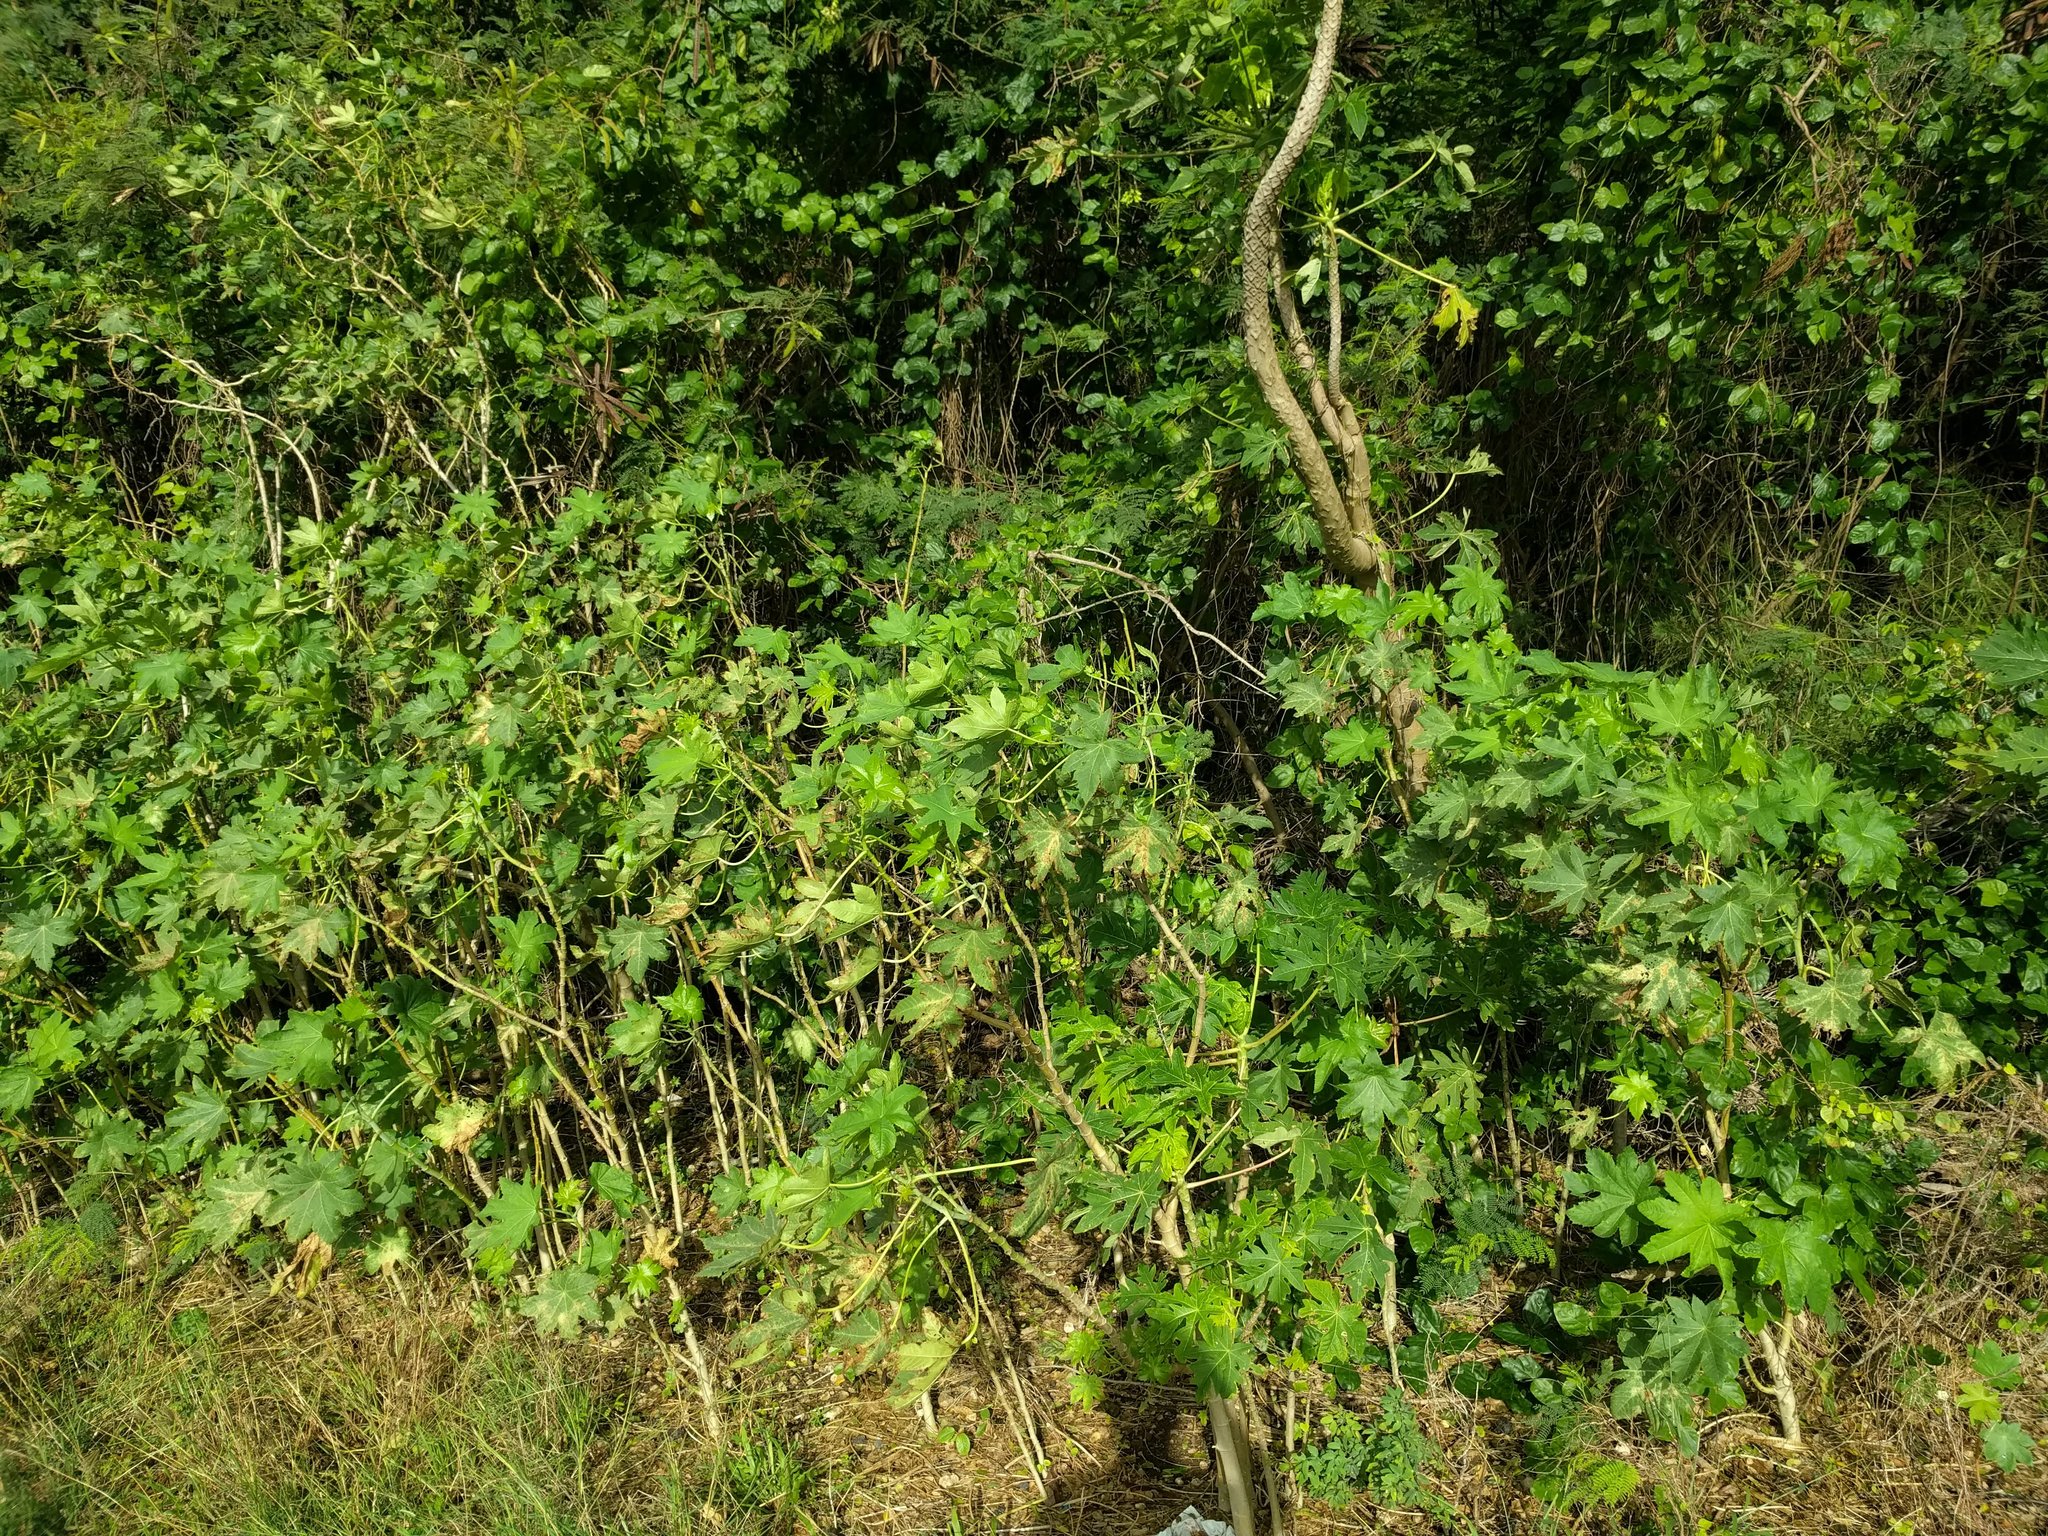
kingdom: Plantae
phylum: Tracheophyta
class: Magnoliopsida
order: Malpighiales
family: Euphorbiaceae
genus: Ricinus
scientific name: Ricinus communis
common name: Castor-oil-plant
